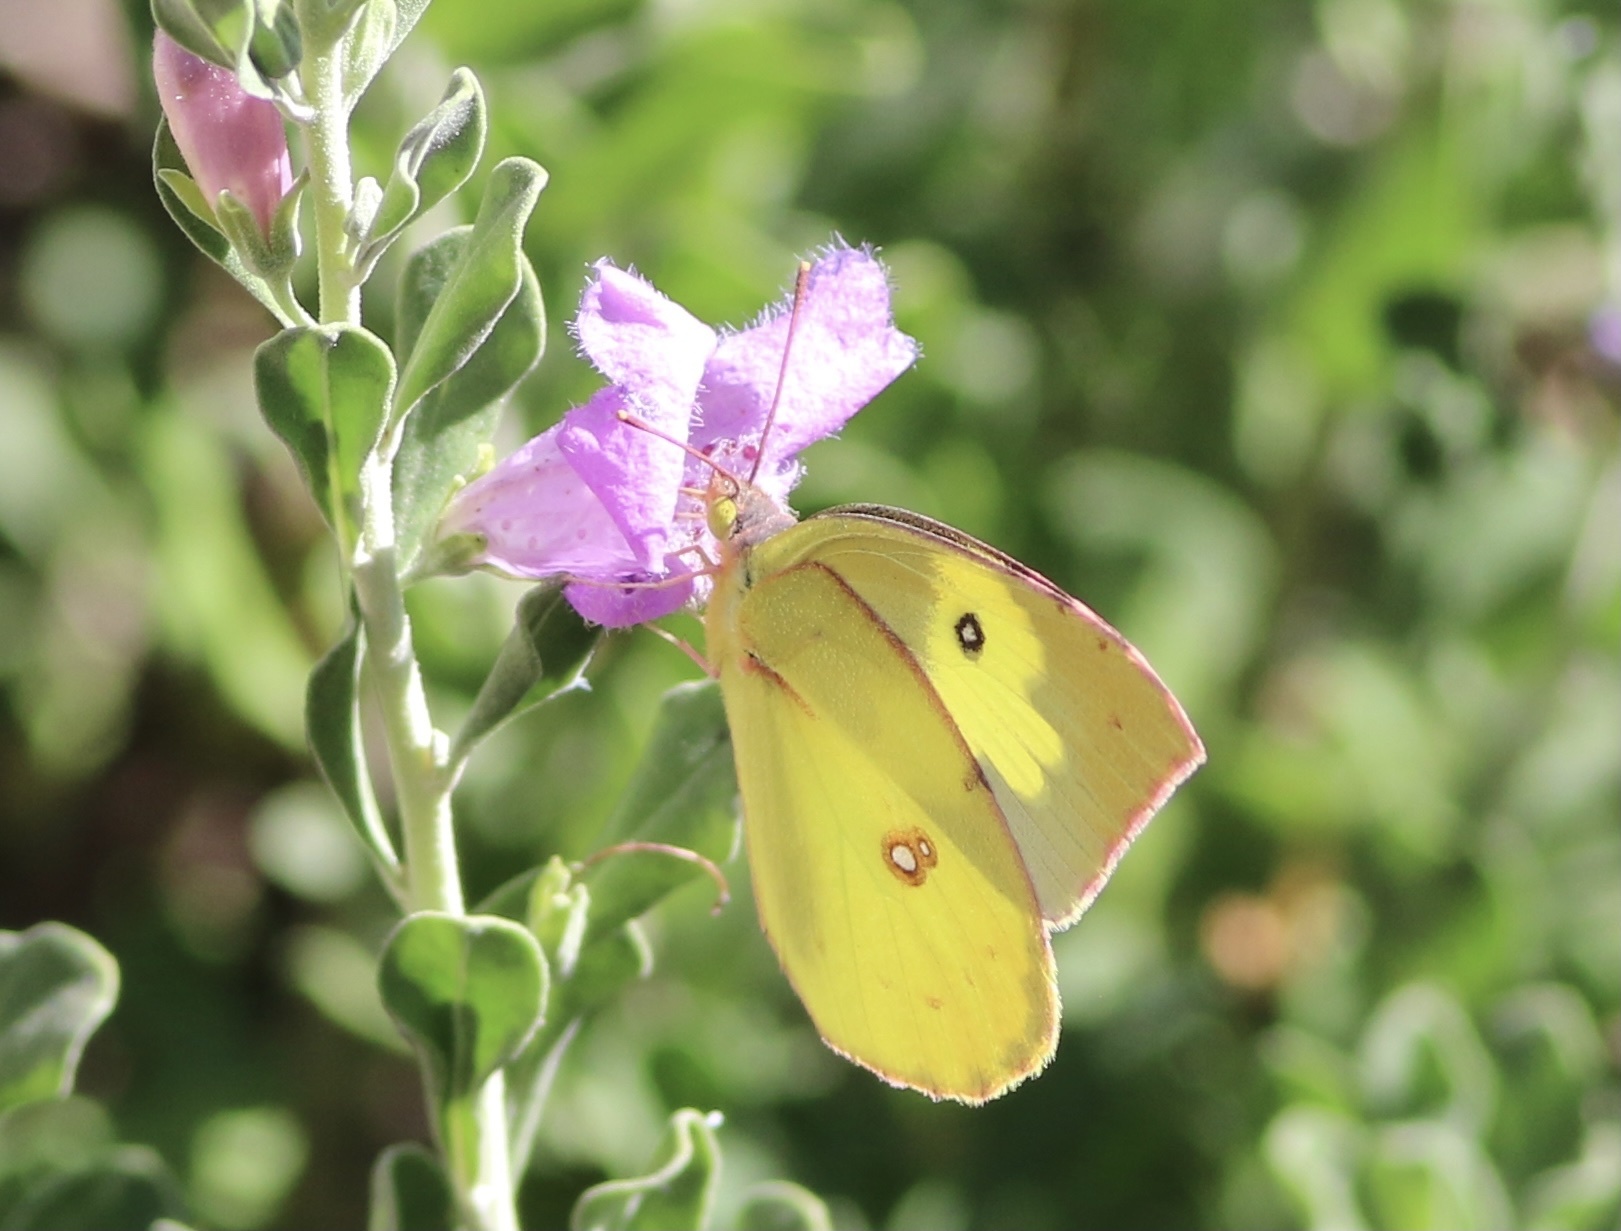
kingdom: Animalia
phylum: Arthropoda
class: Insecta
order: Lepidoptera
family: Pieridae
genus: Zerene
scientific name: Zerene cesonia
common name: Southern dogface
